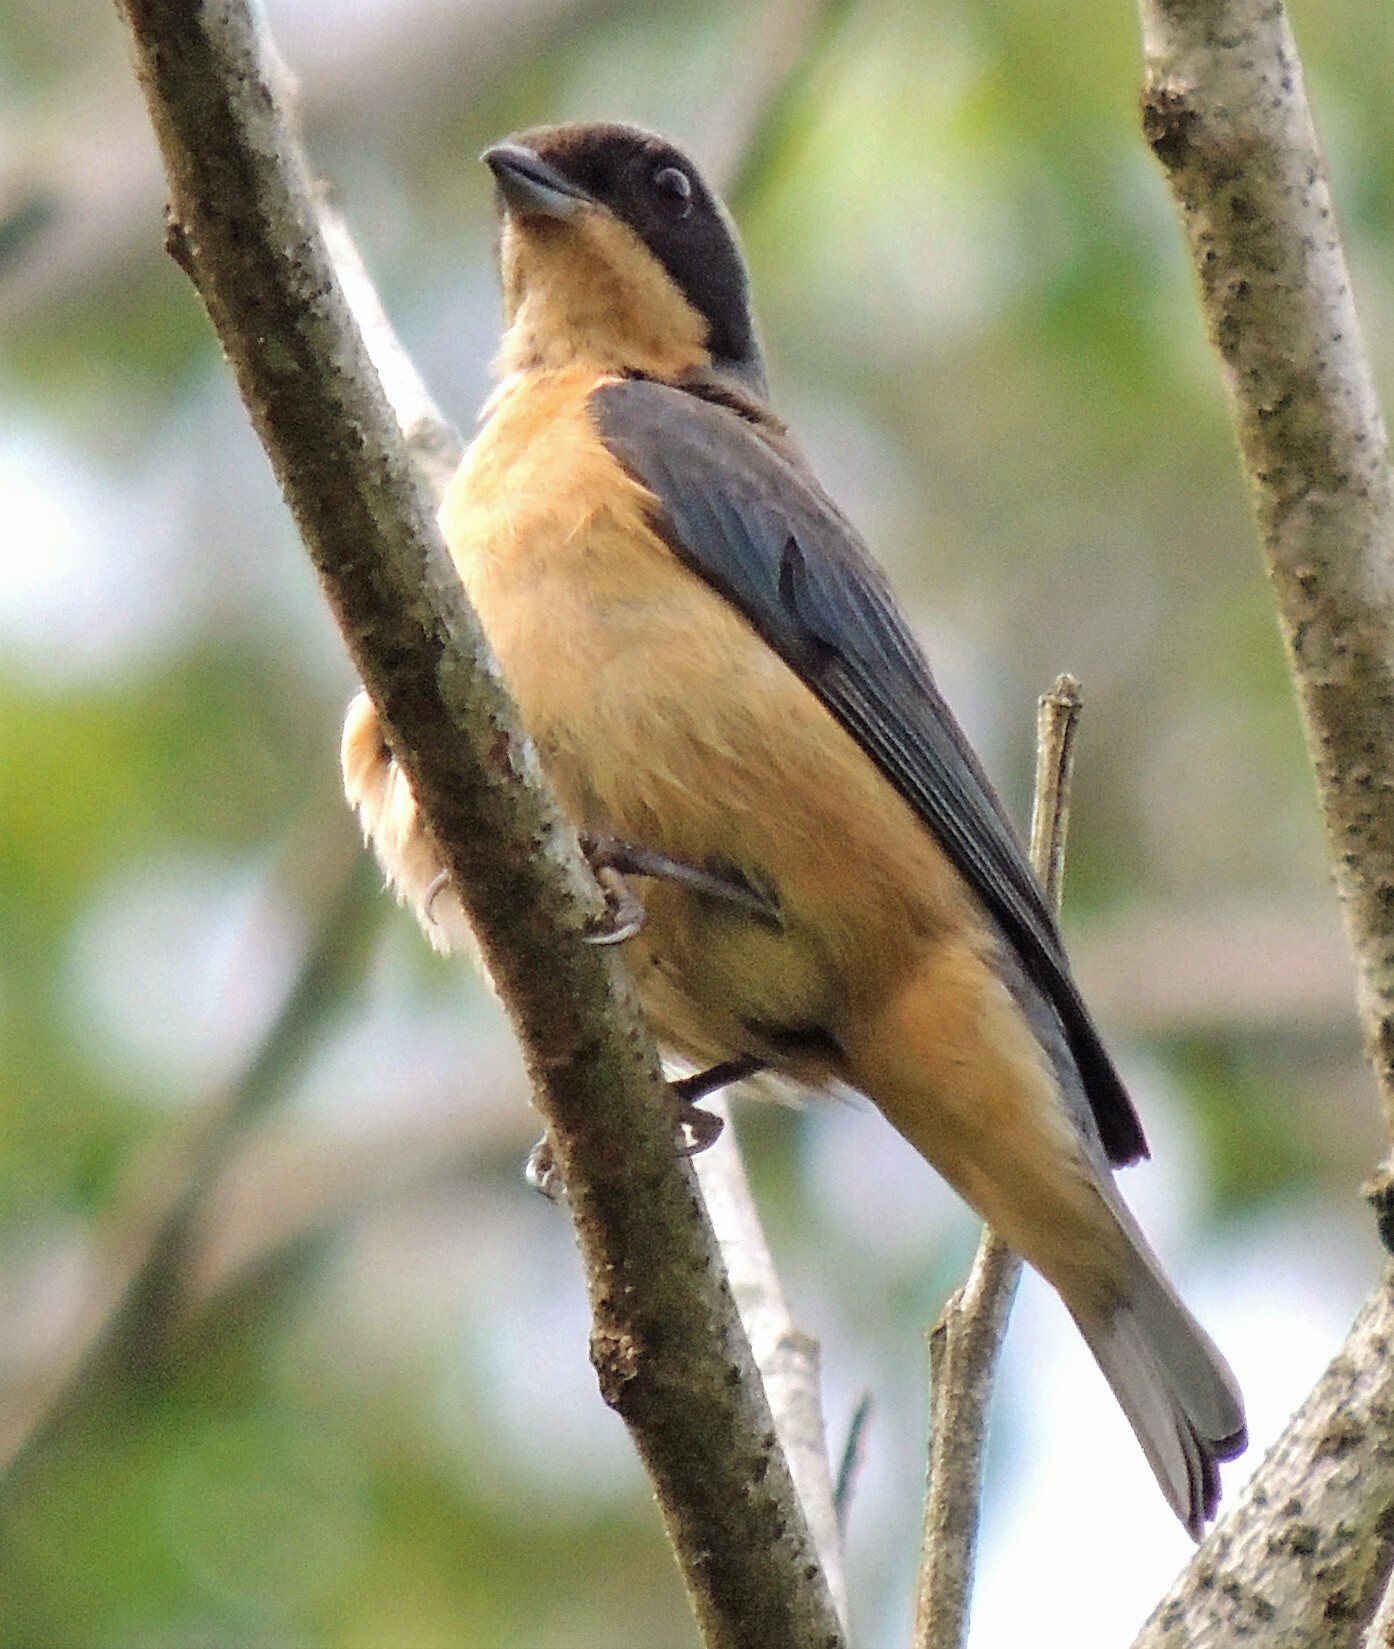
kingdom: Animalia
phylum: Chordata
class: Aves
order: Passeriformes
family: Thraupidae
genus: Pipraeidea
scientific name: Pipraeidea melanonota
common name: Fawn-breasted tanager
